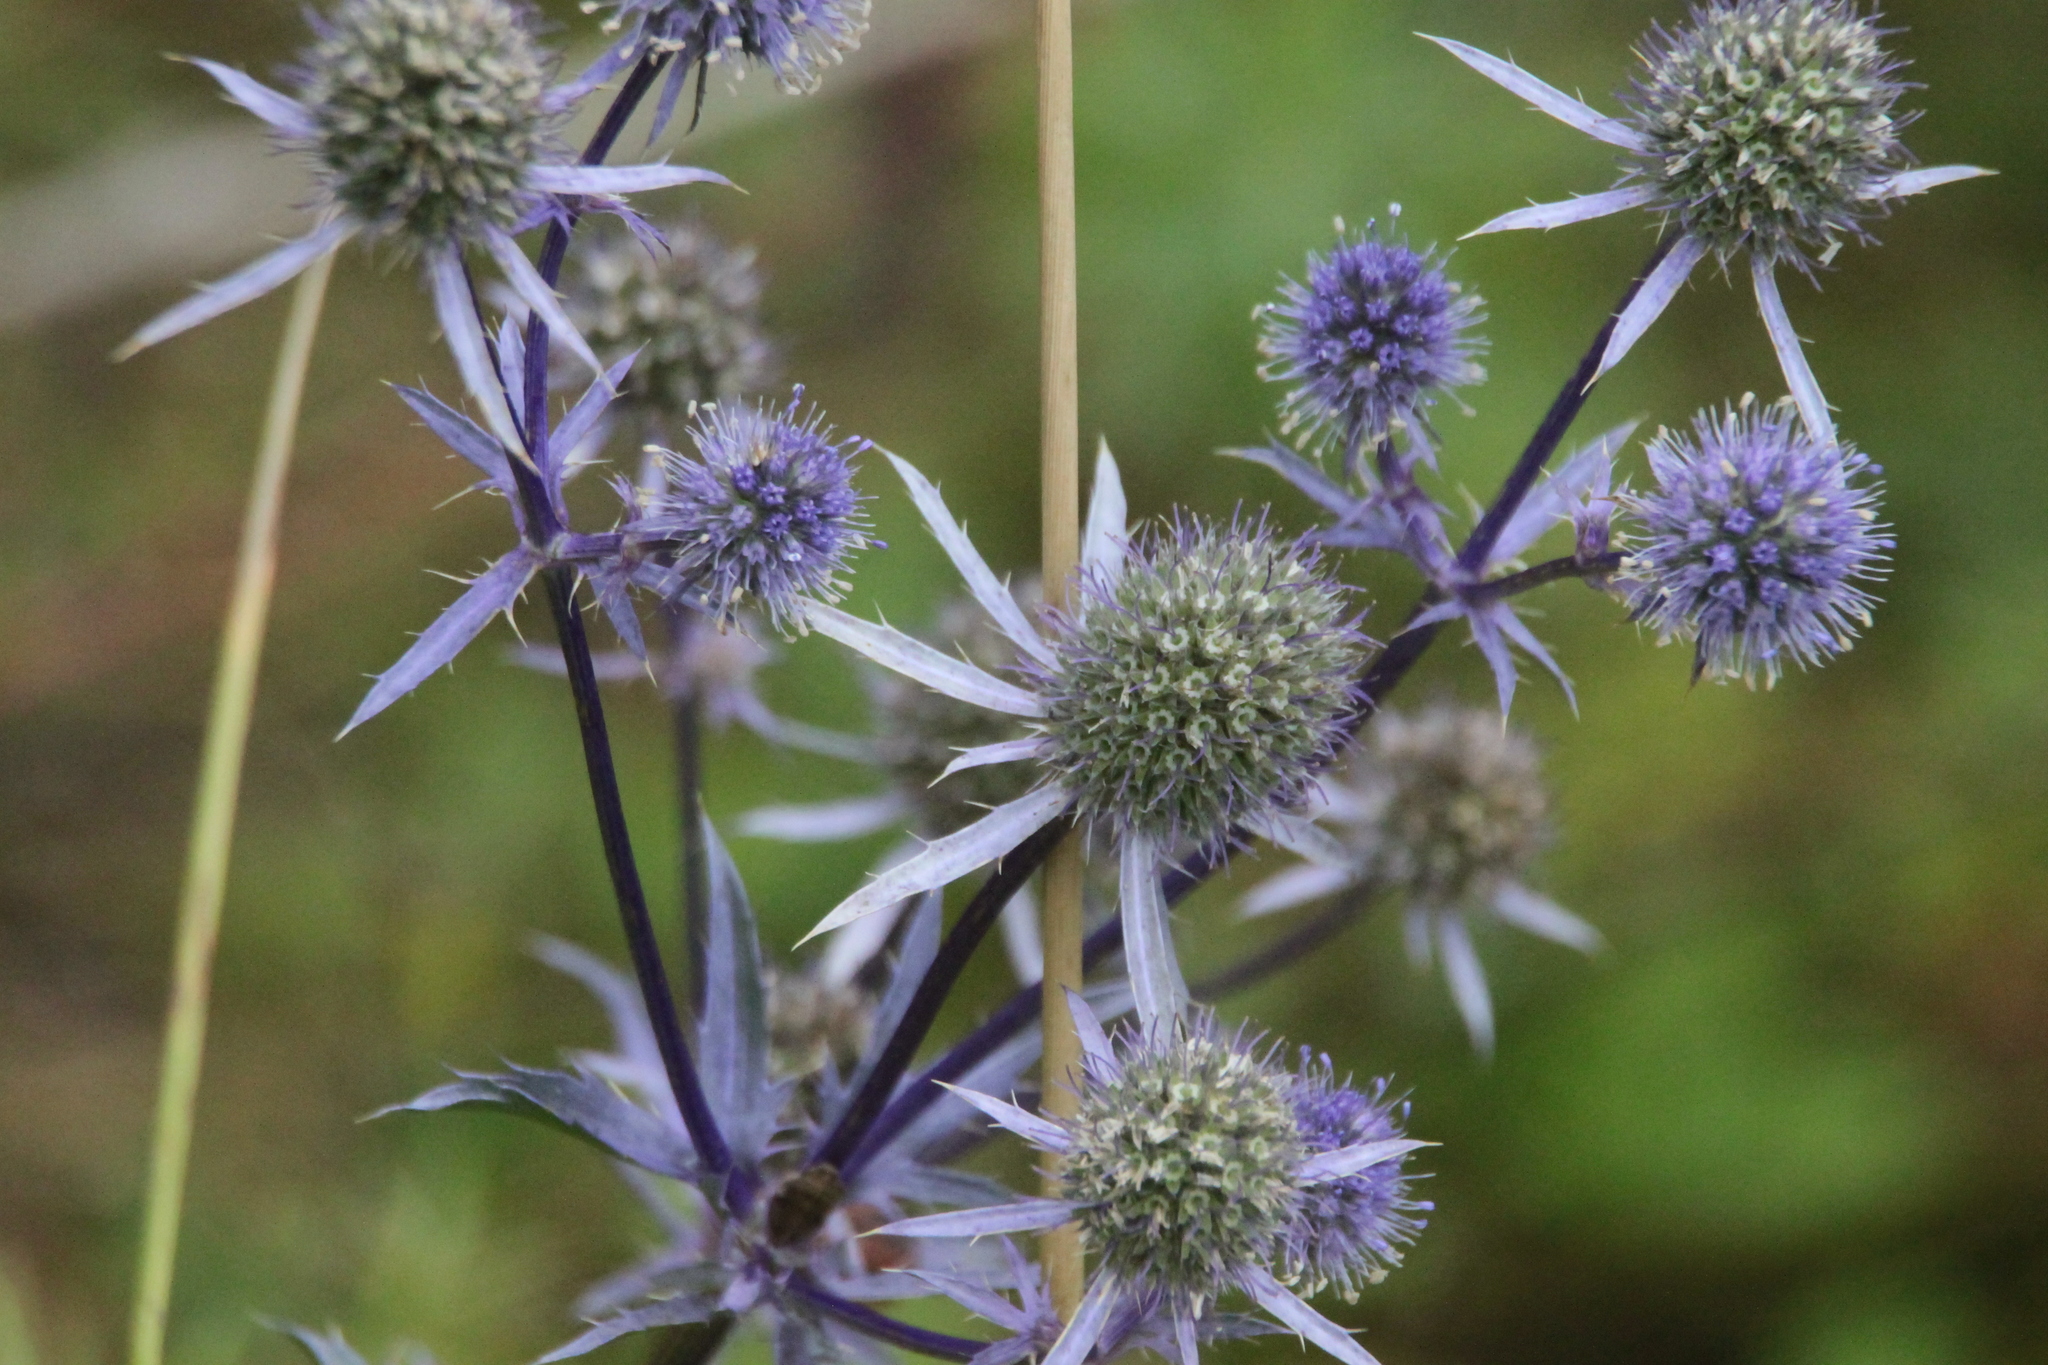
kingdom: Plantae
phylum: Tracheophyta
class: Magnoliopsida
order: Apiales
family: Apiaceae
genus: Eryngium
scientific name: Eryngium planum
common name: Blue eryngo
